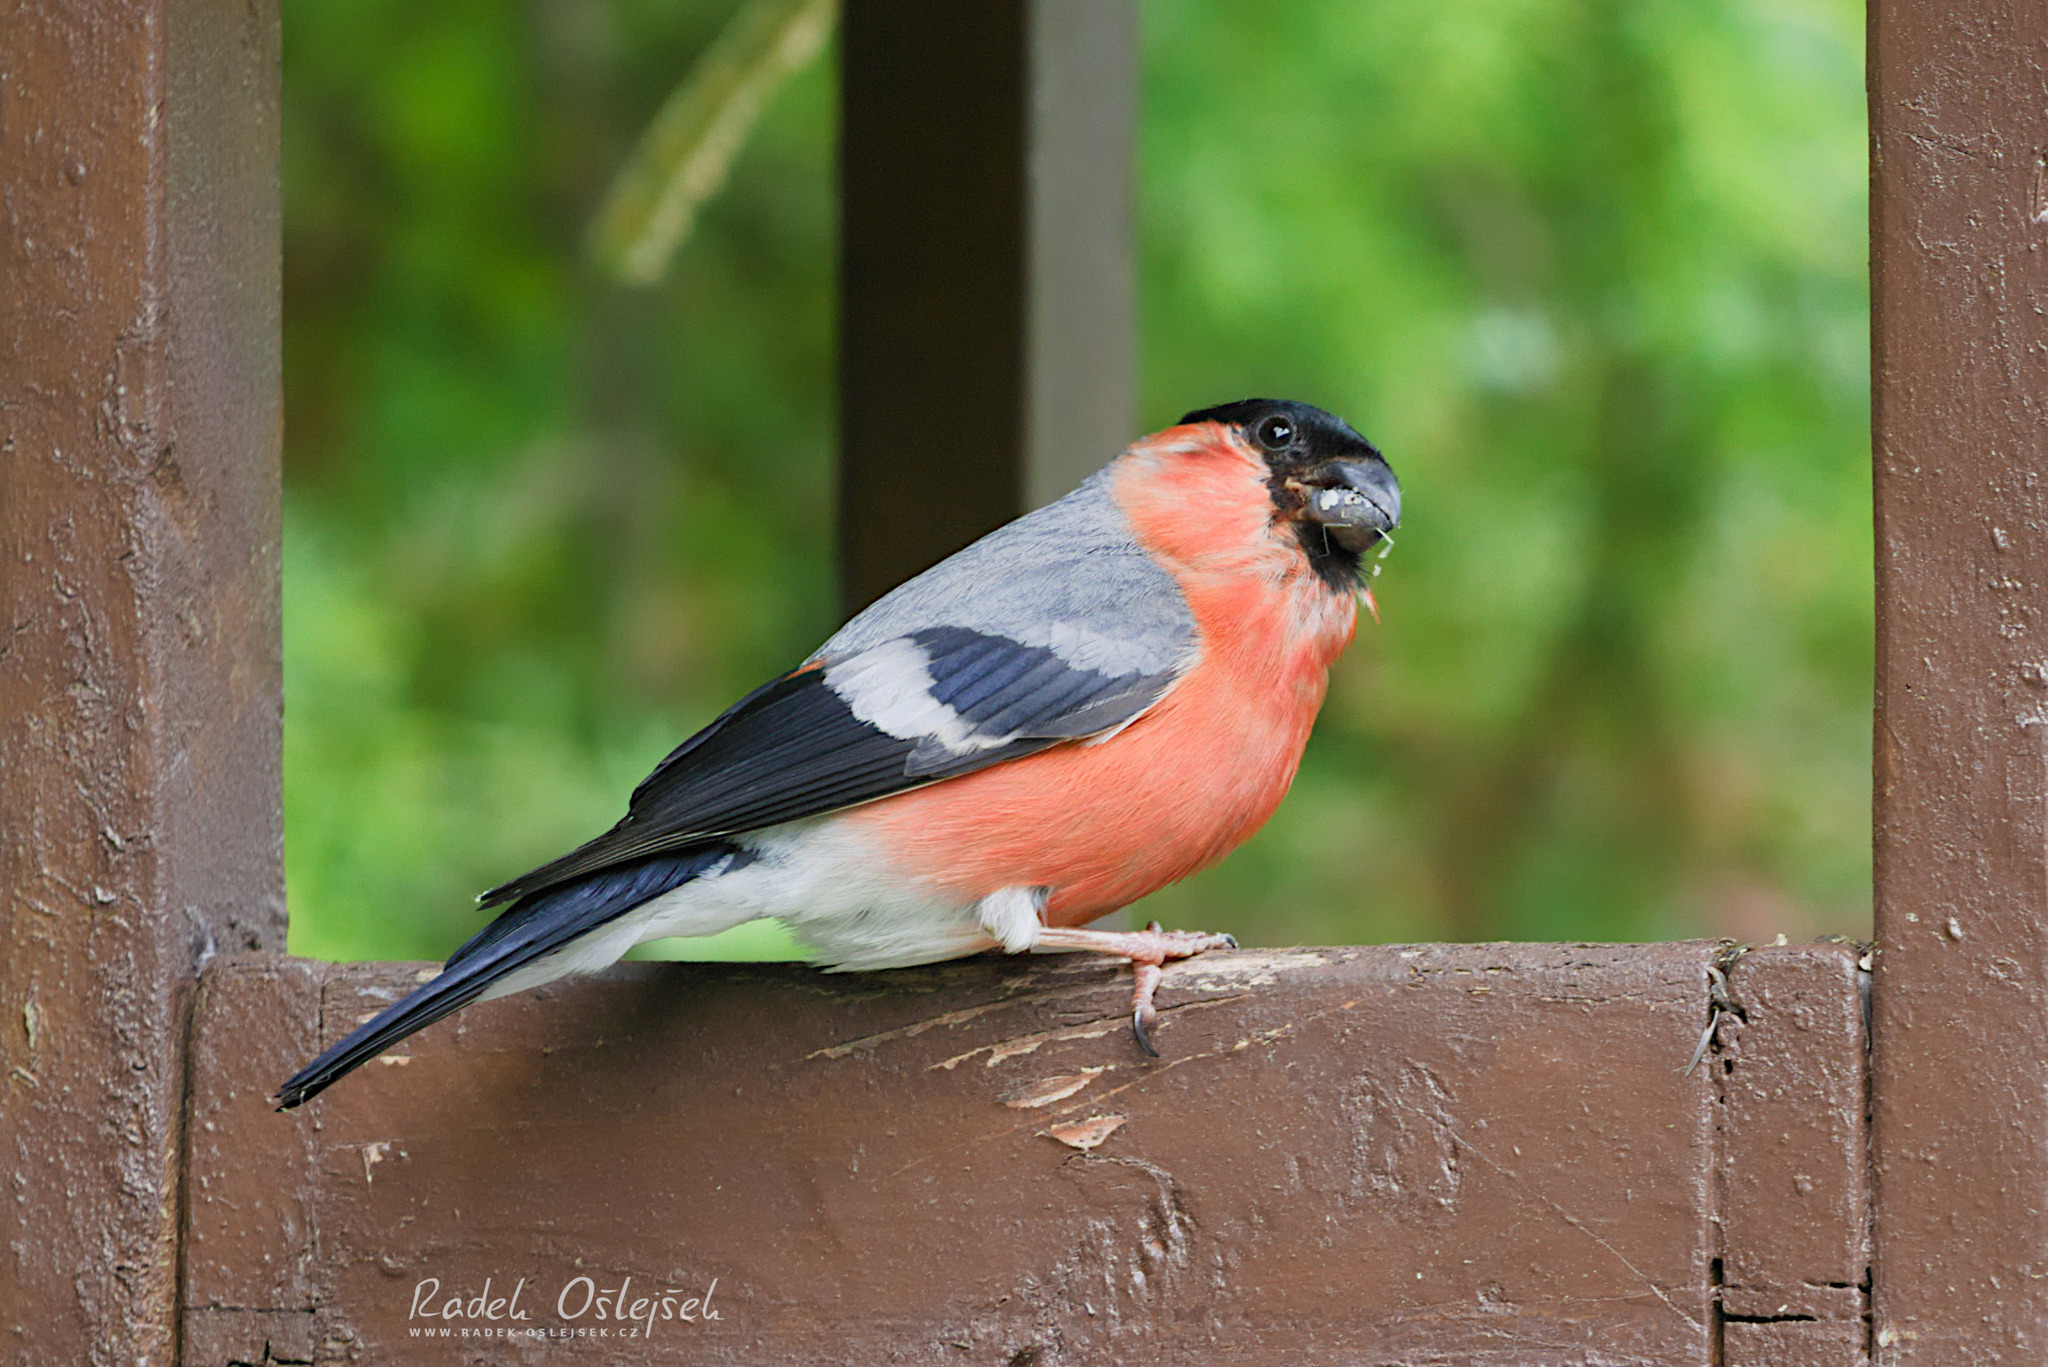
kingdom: Animalia
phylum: Chordata
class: Aves
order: Passeriformes
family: Fringillidae
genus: Pyrrhula
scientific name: Pyrrhula pyrrhula
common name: Eurasian bullfinch
